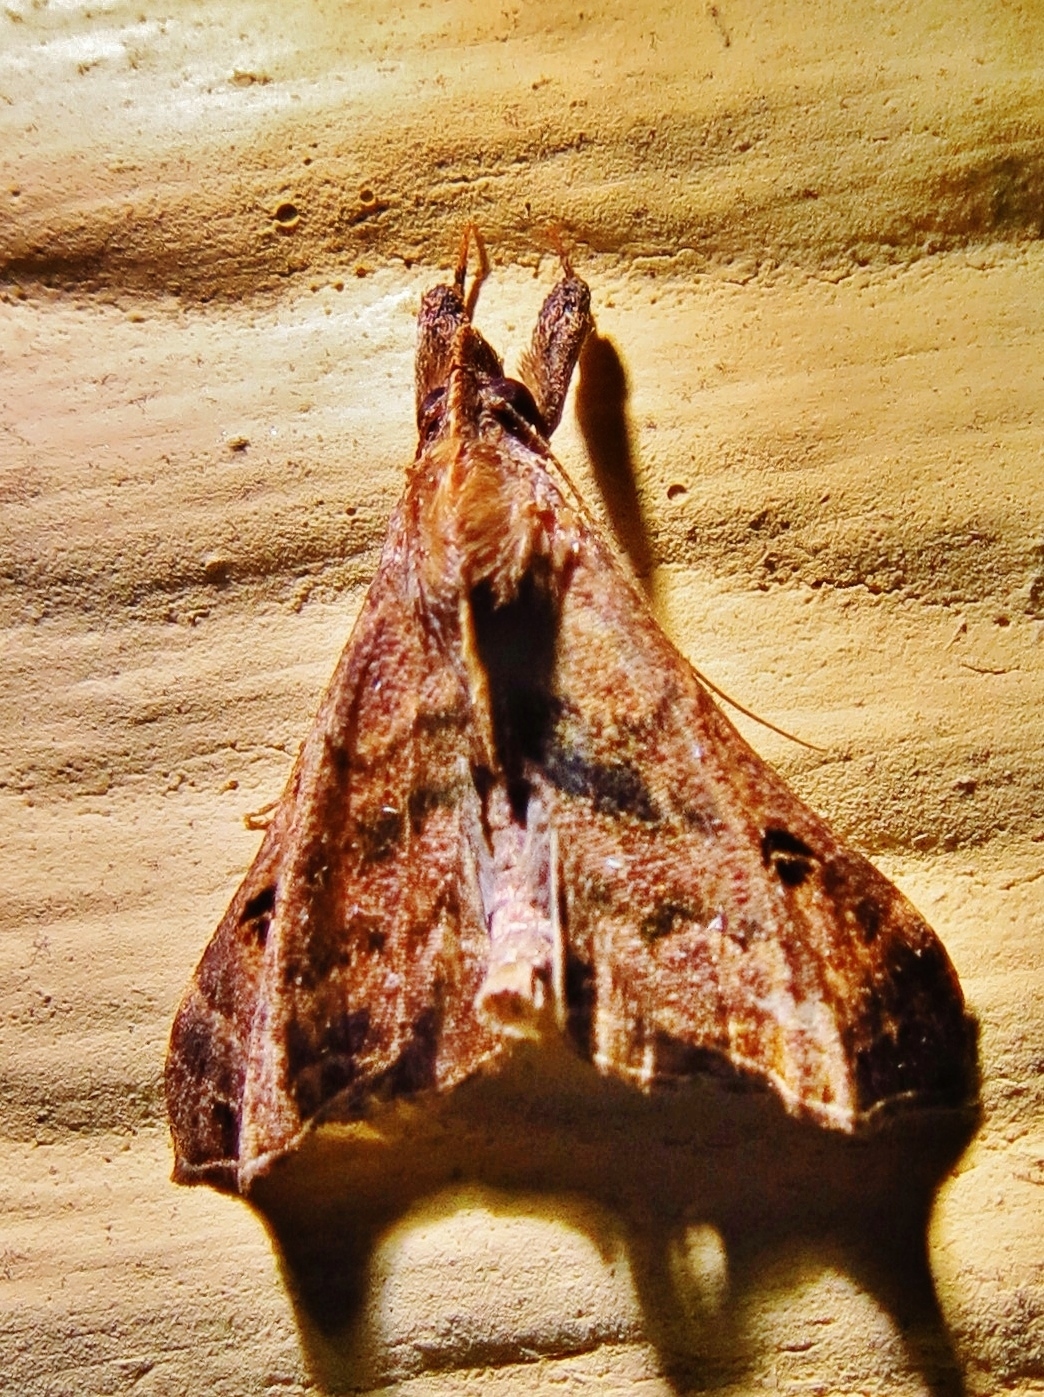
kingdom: Animalia
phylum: Arthropoda
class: Insecta
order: Lepidoptera
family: Erebidae
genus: Palthis
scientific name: Palthis asopialis
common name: Faint-spotted palthis moth
